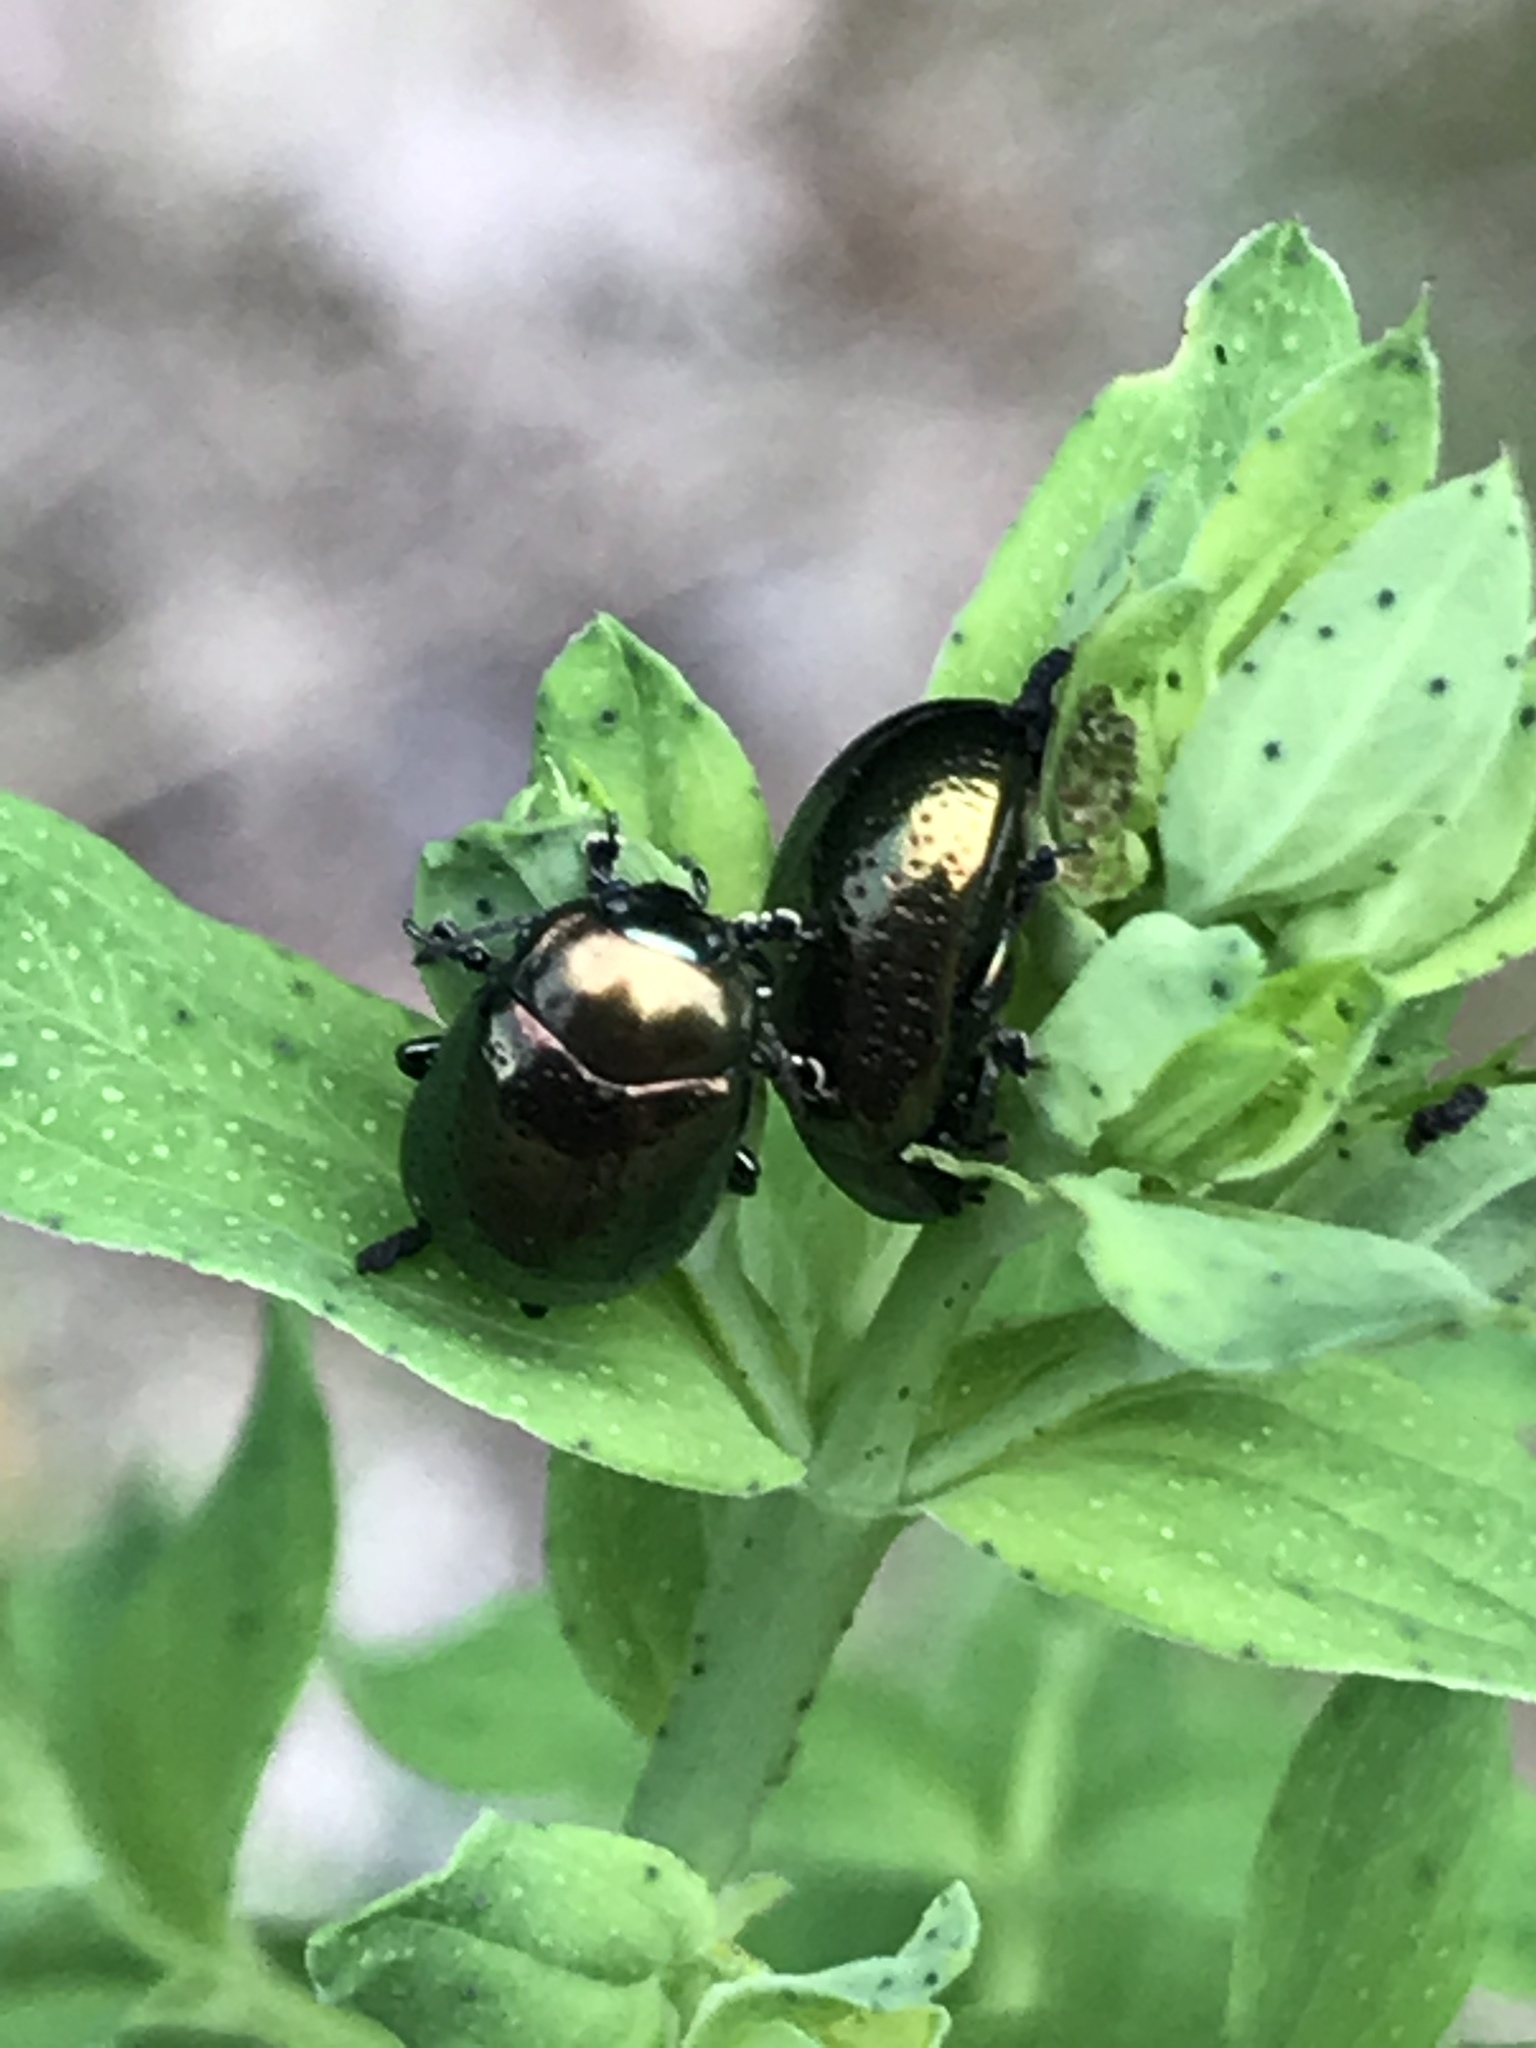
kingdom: Animalia
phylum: Arthropoda
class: Insecta
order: Coleoptera
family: Chrysomelidae
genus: Chrysolina
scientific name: Chrysolina hyperici
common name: St. johnswort beetle
